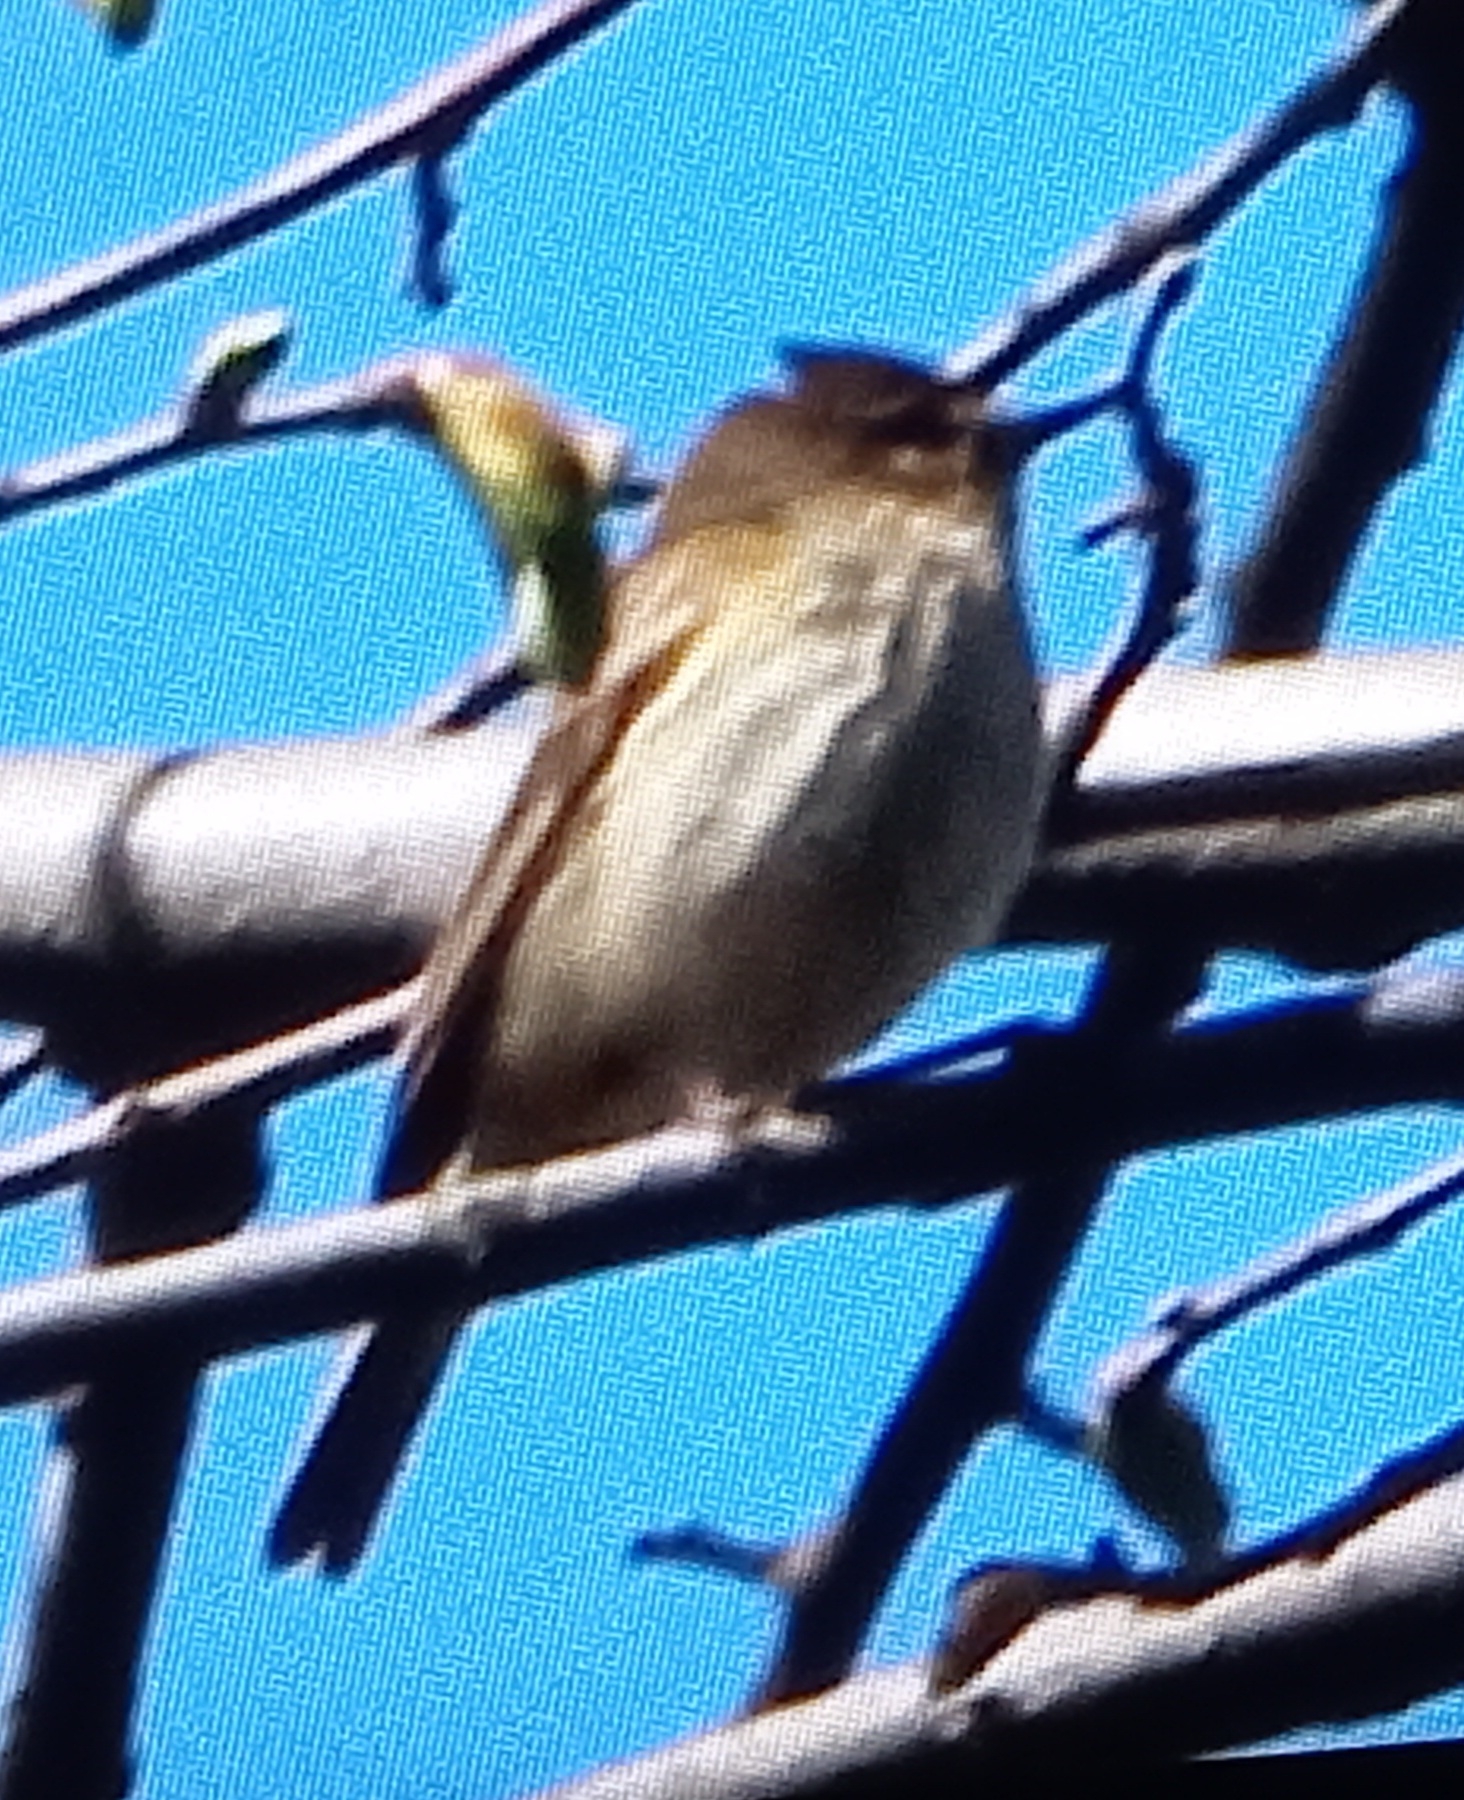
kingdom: Animalia
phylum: Chordata
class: Aves
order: Passeriformes
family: Phylloscopidae
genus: Phylloscopus
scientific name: Phylloscopus trochilus
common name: Willow warbler
